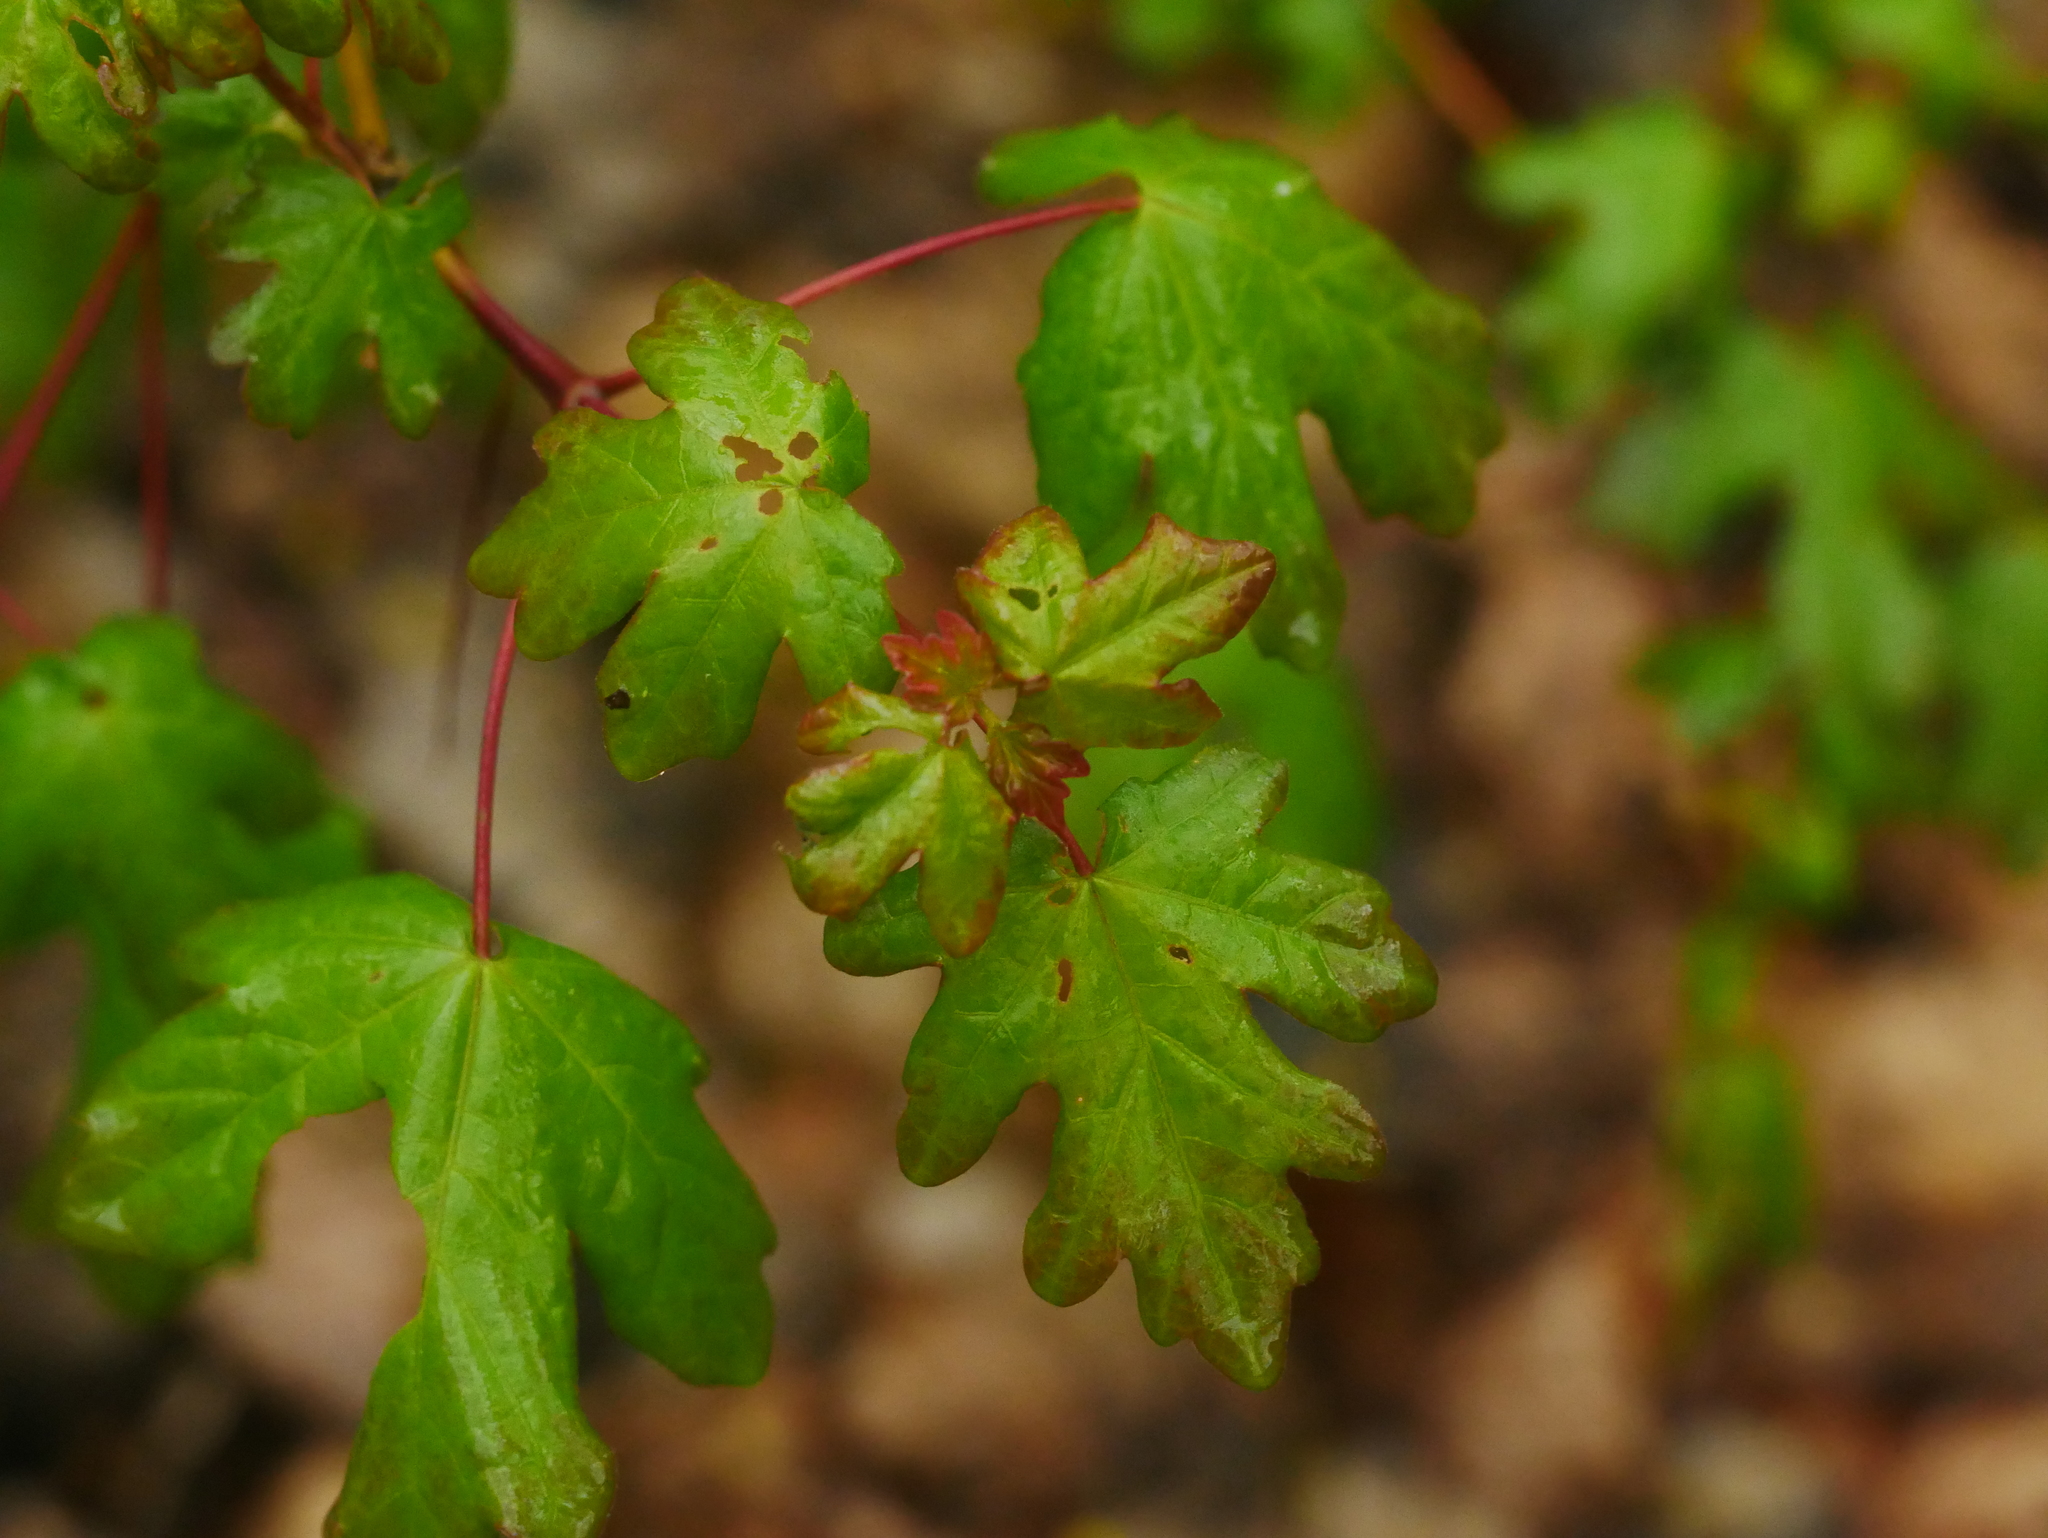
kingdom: Plantae
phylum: Tracheophyta
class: Magnoliopsida
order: Sapindales
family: Sapindaceae
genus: Acer
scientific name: Acer campestre
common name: Field maple
